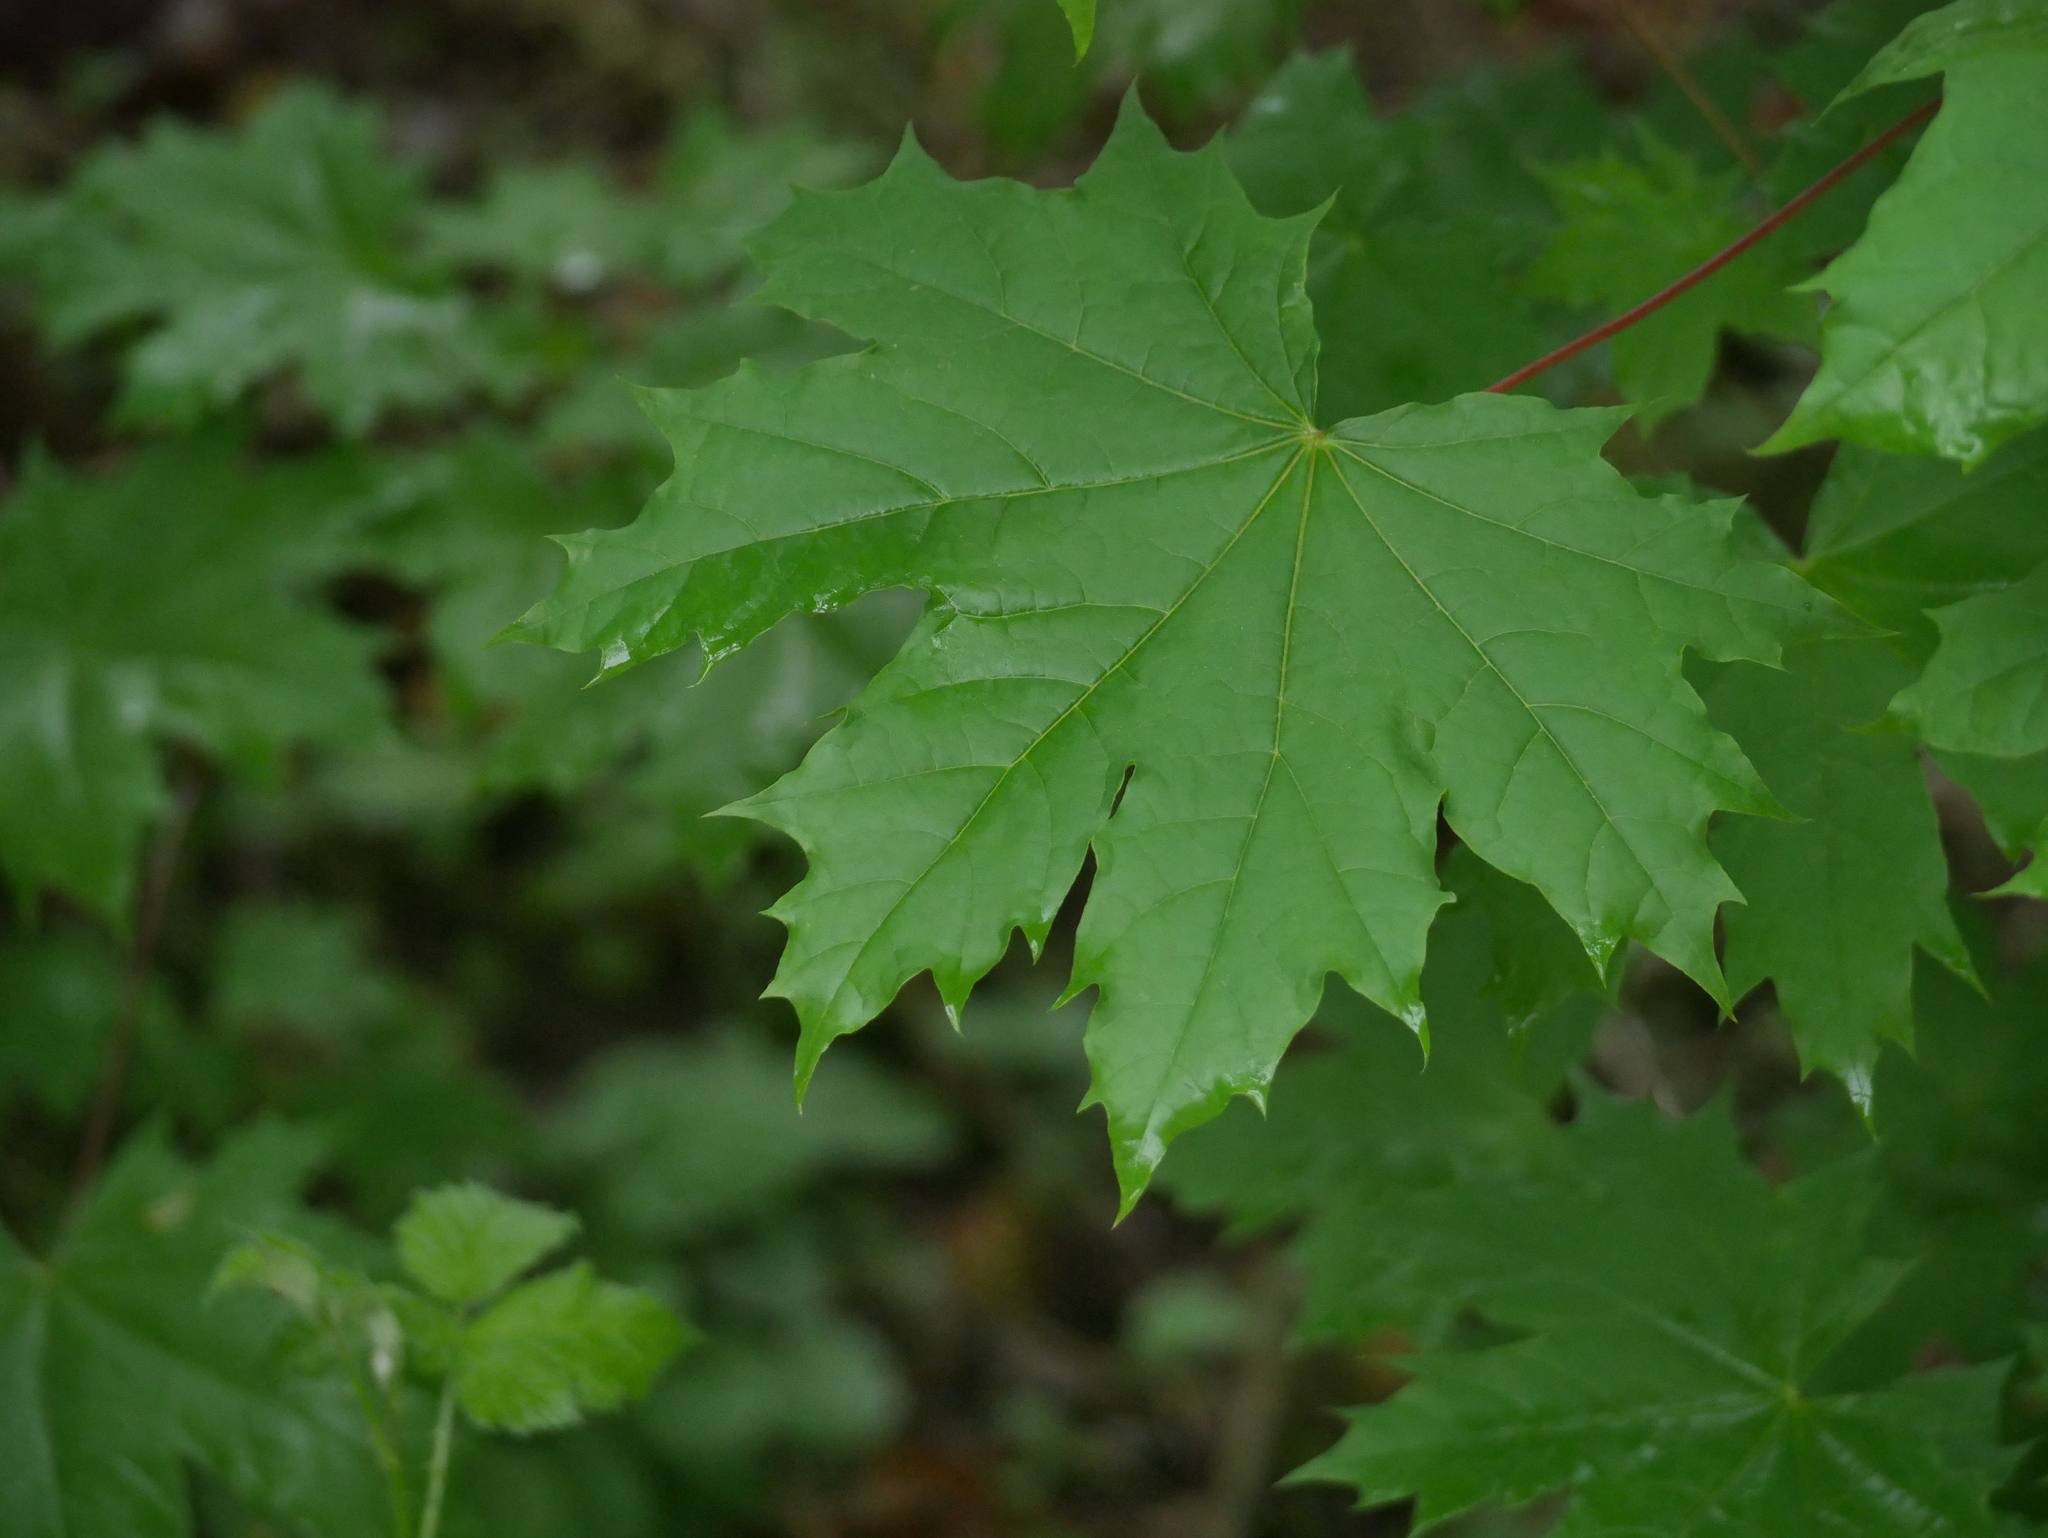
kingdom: Plantae
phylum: Tracheophyta
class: Magnoliopsida
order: Sapindales
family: Sapindaceae
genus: Acer
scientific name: Acer platanoides
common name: Norway maple
